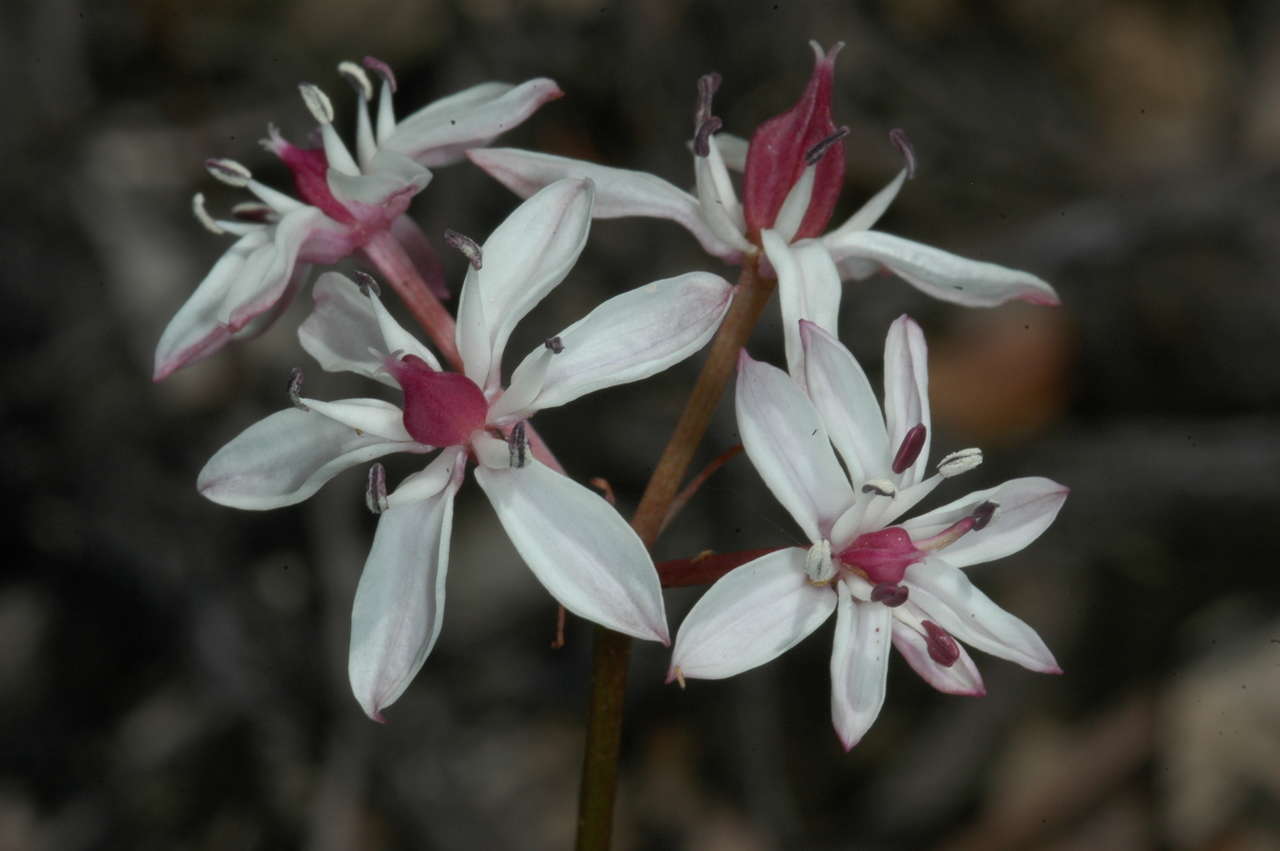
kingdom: Plantae
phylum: Tracheophyta
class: Liliopsida
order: Liliales
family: Colchicaceae
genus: Burchardia
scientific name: Burchardia umbellata
